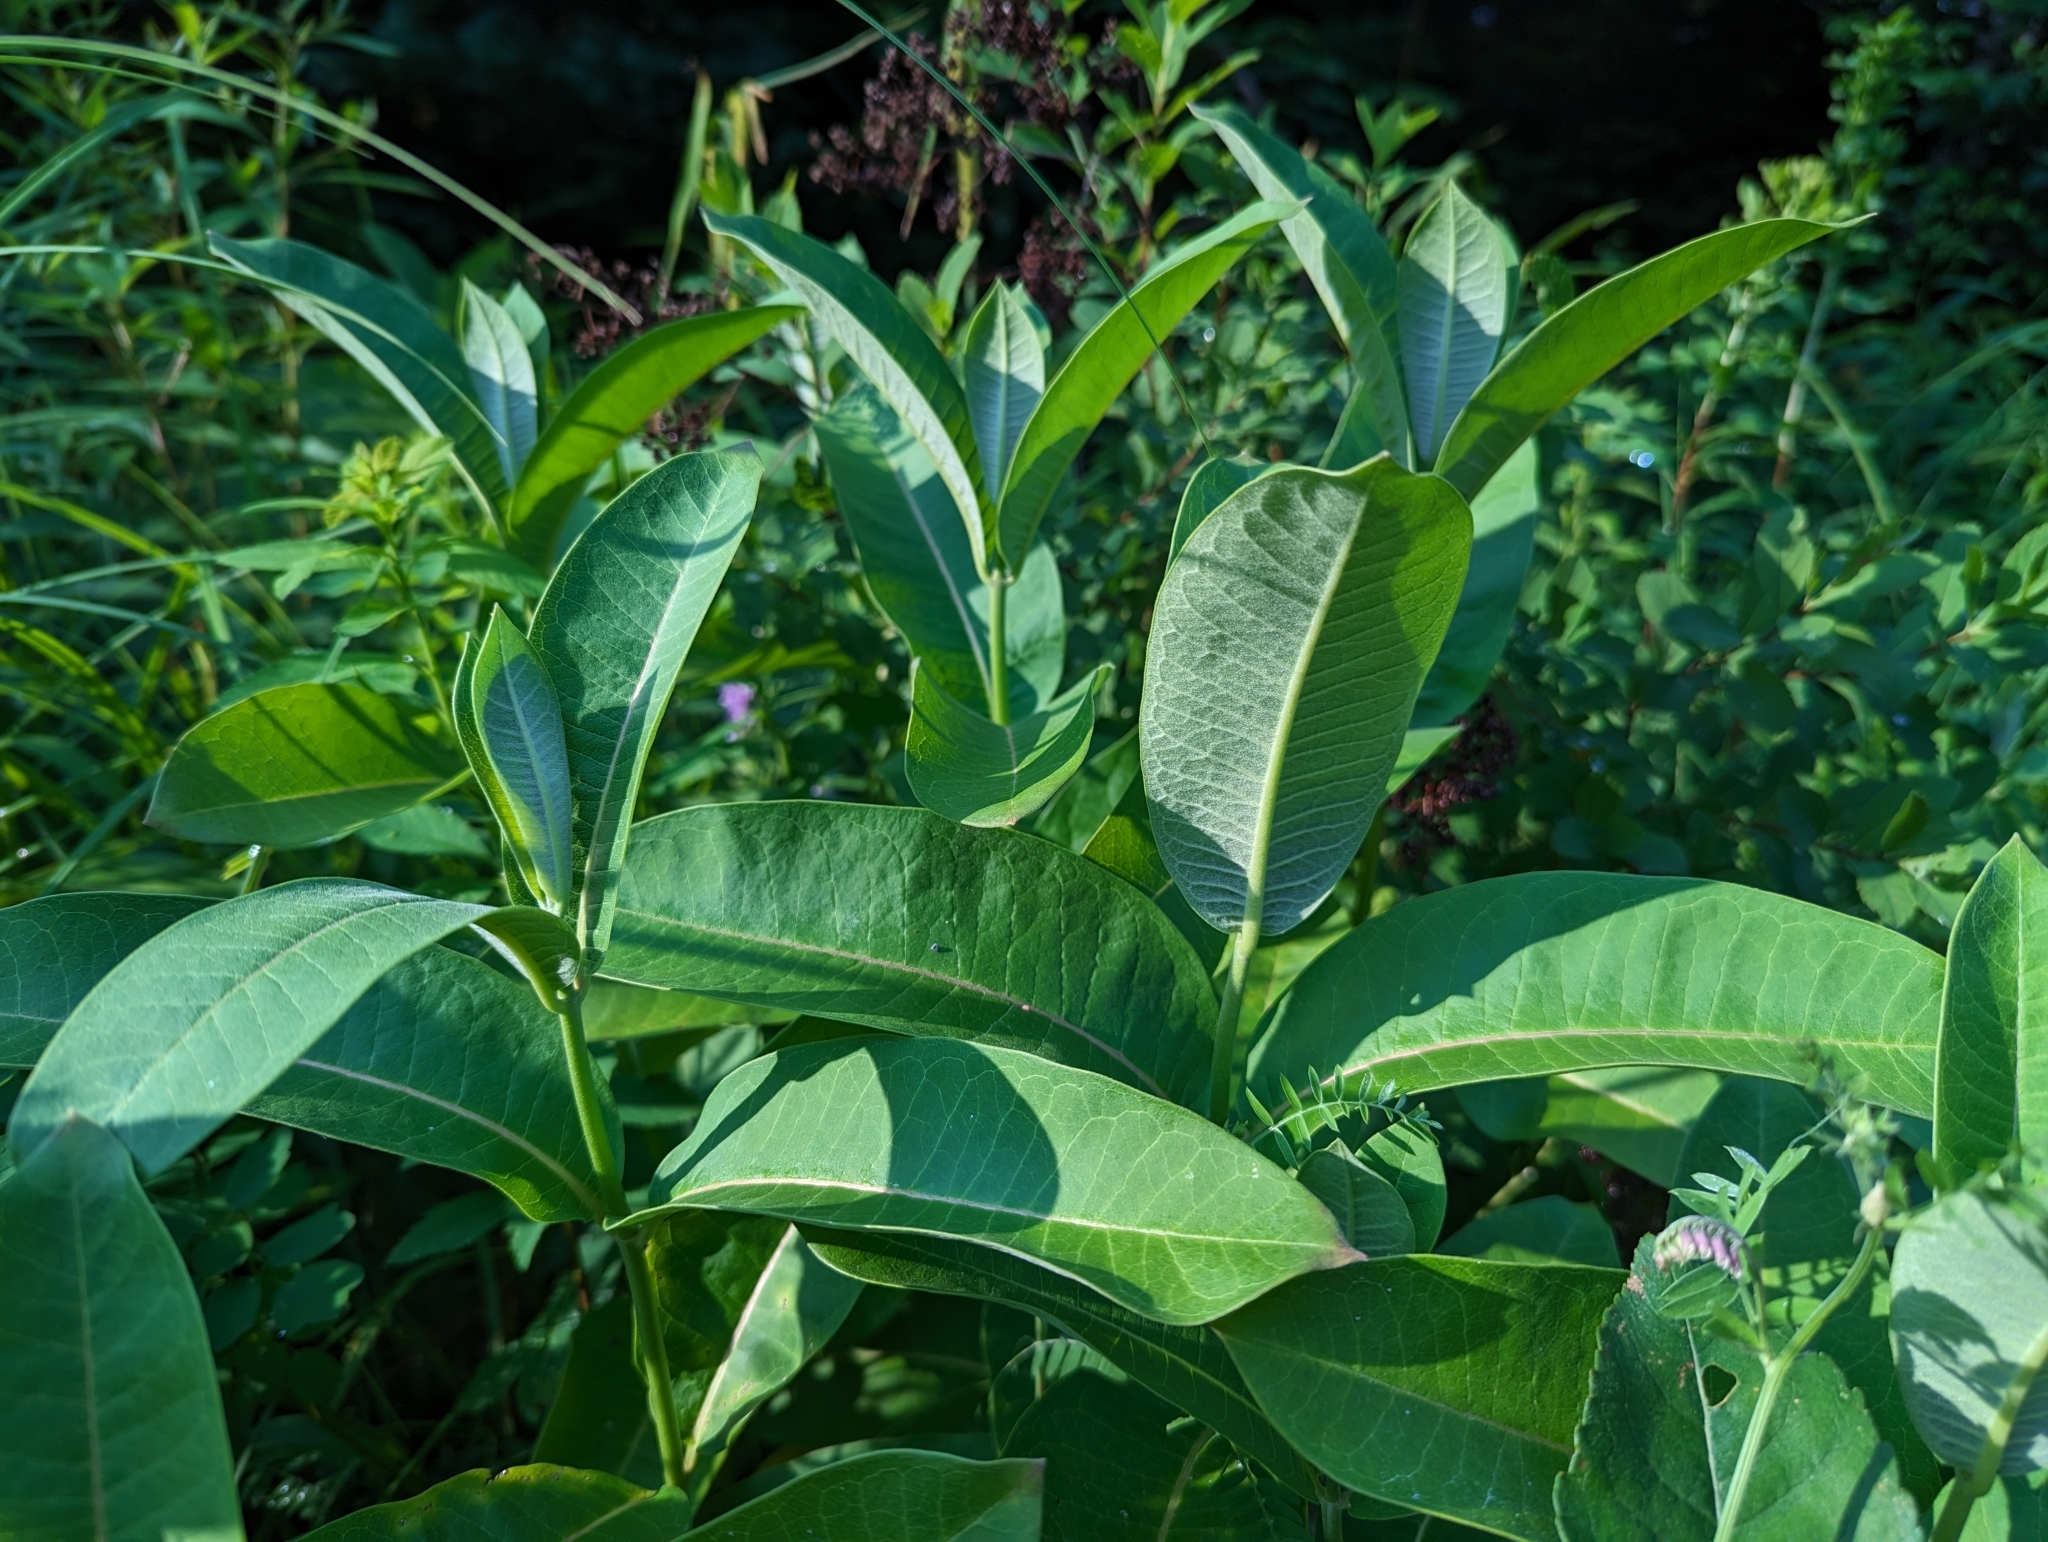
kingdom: Plantae
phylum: Tracheophyta
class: Magnoliopsida
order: Gentianales
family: Apocynaceae
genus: Asclepias
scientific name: Asclepias syriaca
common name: Common milkweed
